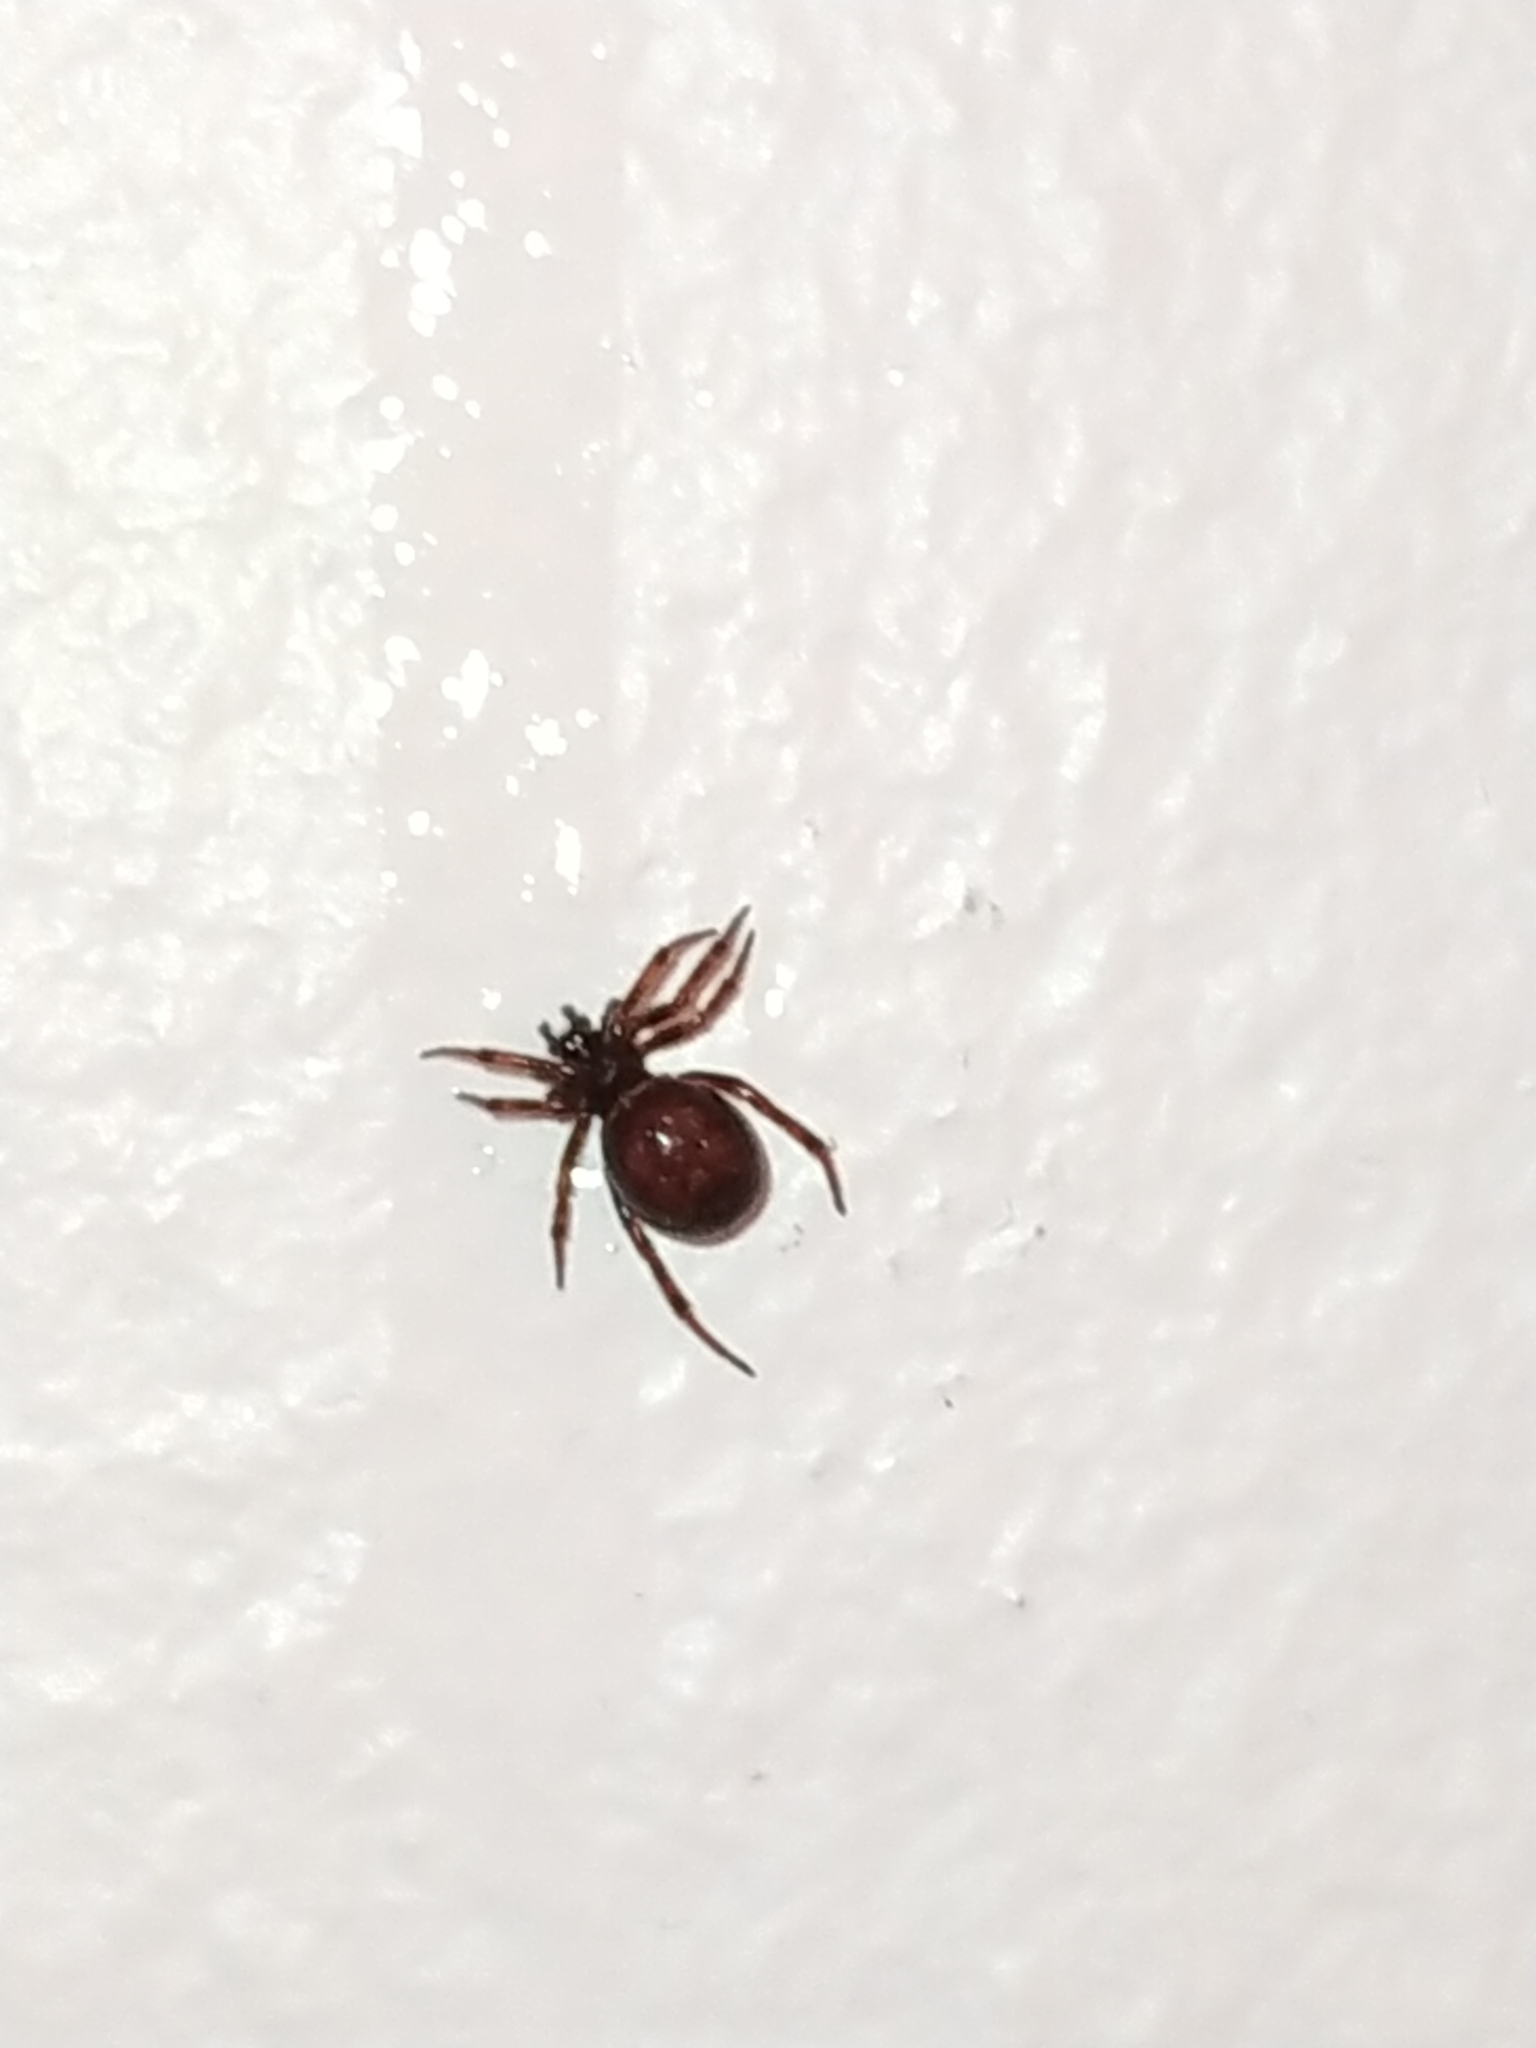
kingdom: Animalia
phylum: Arthropoda
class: Arachnida
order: Araneae
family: Theridiidae
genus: Steatoda
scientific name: Steatoda bipunctata
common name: False widow
